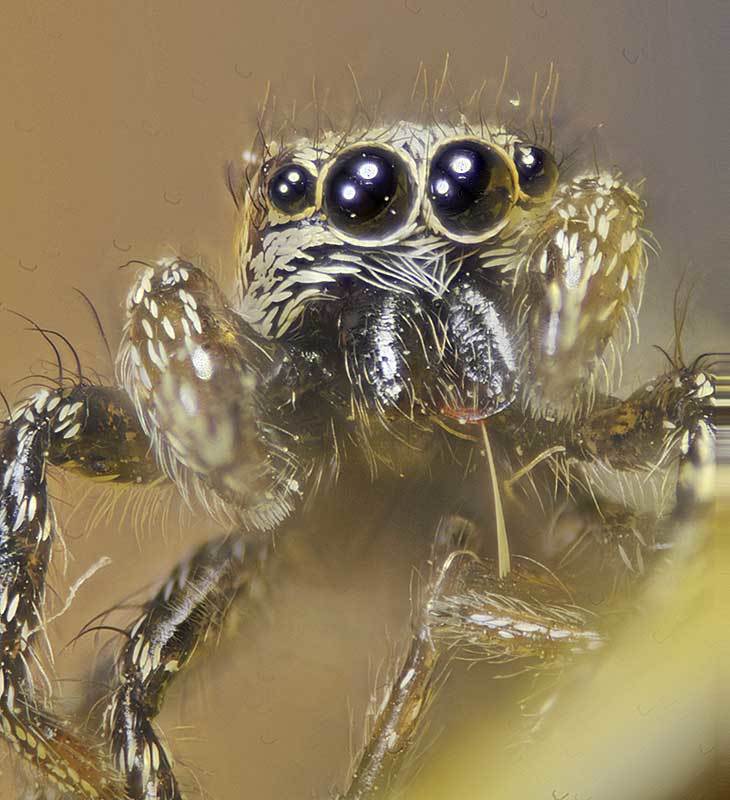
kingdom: Animalia
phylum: Arthropoda
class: Arachnida
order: Araneae
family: Salticidae
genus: Salticus
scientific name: Salticus scenicus
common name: Zebra jumper
